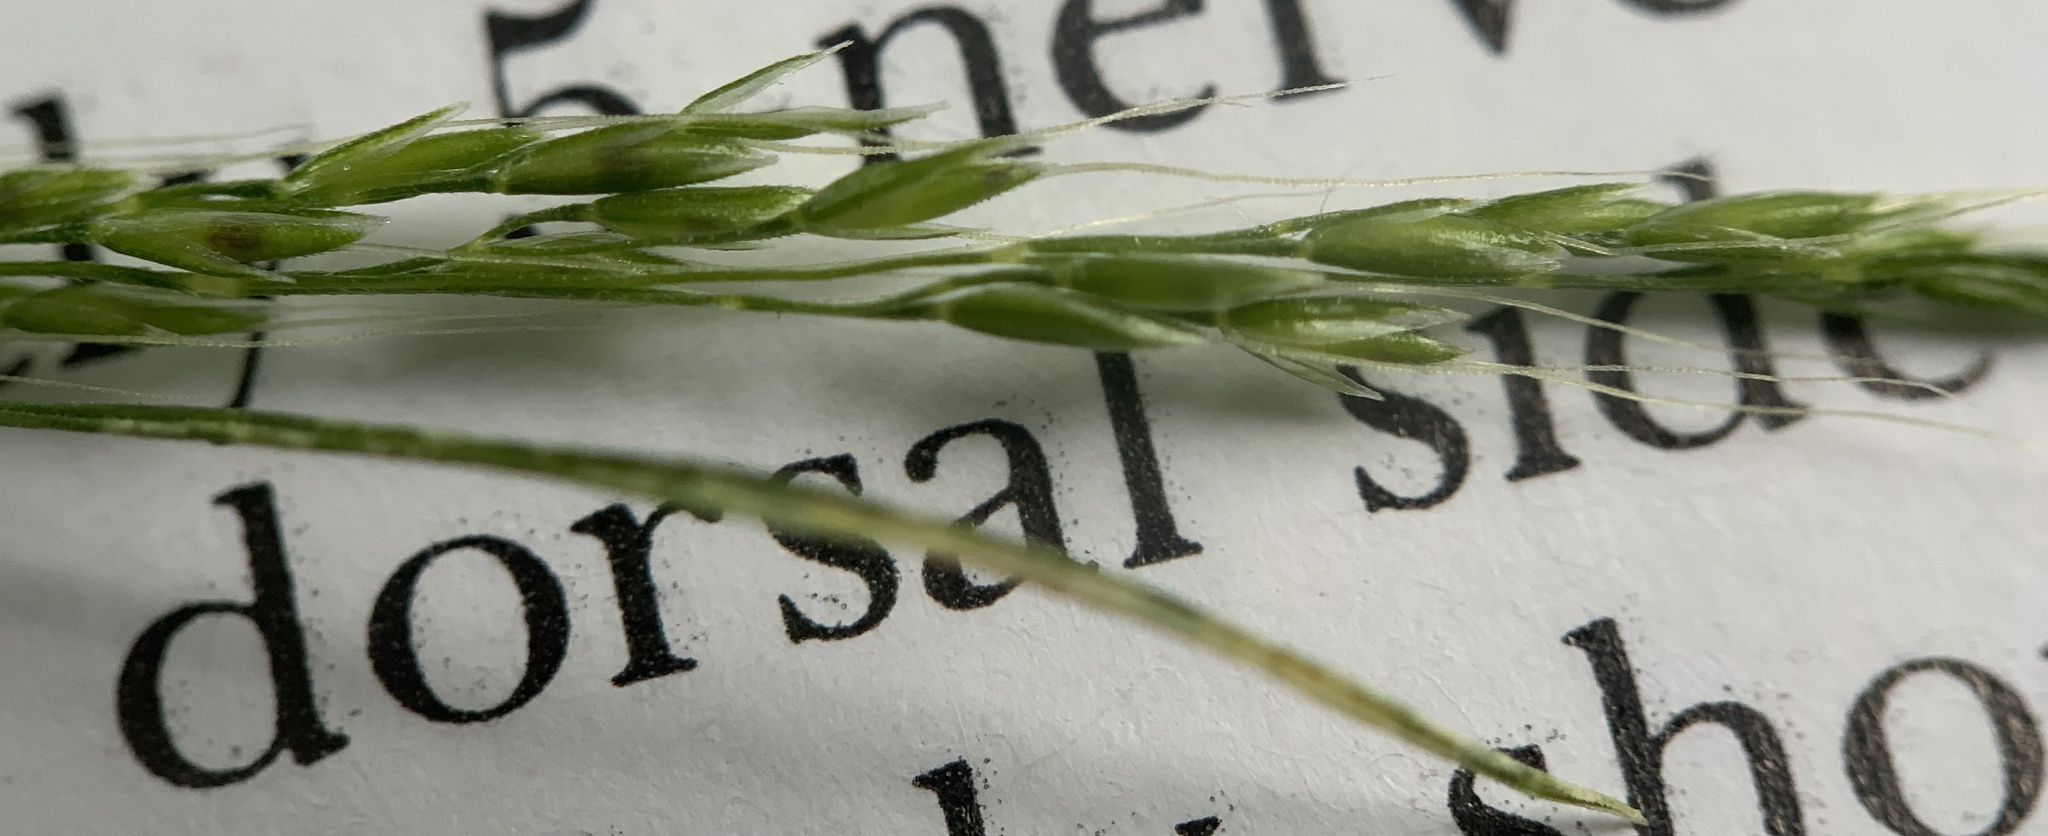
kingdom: Plantae
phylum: Tracheophyta
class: Liliopsida
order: Poales
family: Poaceae
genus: Apera
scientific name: Apera interrupta
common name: Dense silky-bent
